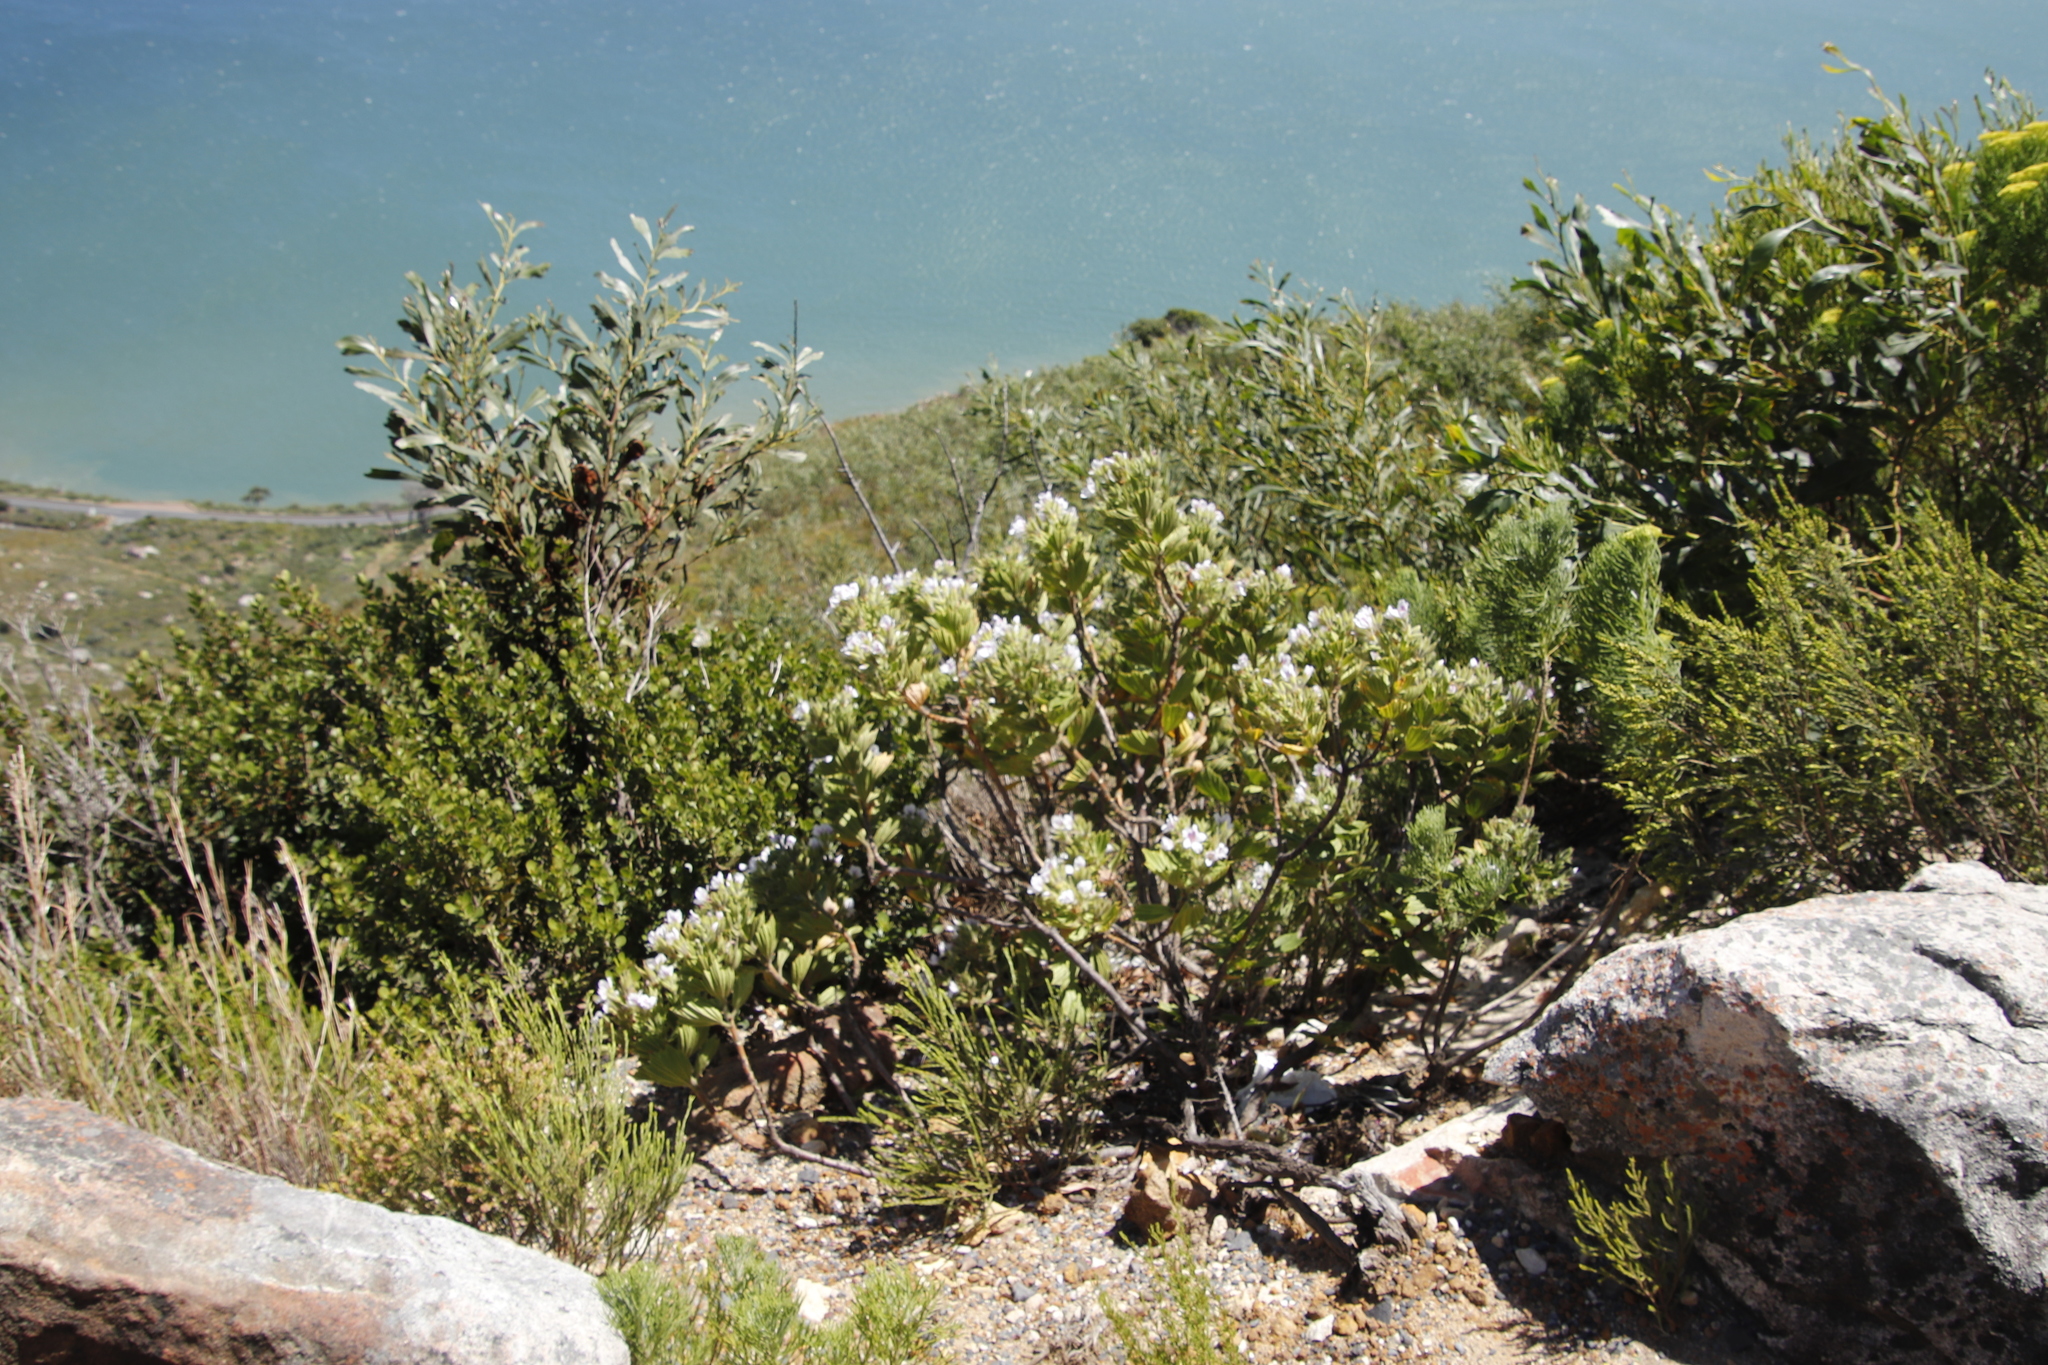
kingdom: Plantae
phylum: Tracheophyta
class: Magnoliopsida
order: Geraniales
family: Geraniaceae
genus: Pelargonium
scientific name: Pelargonium cucullatum
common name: Tree pelargonium
